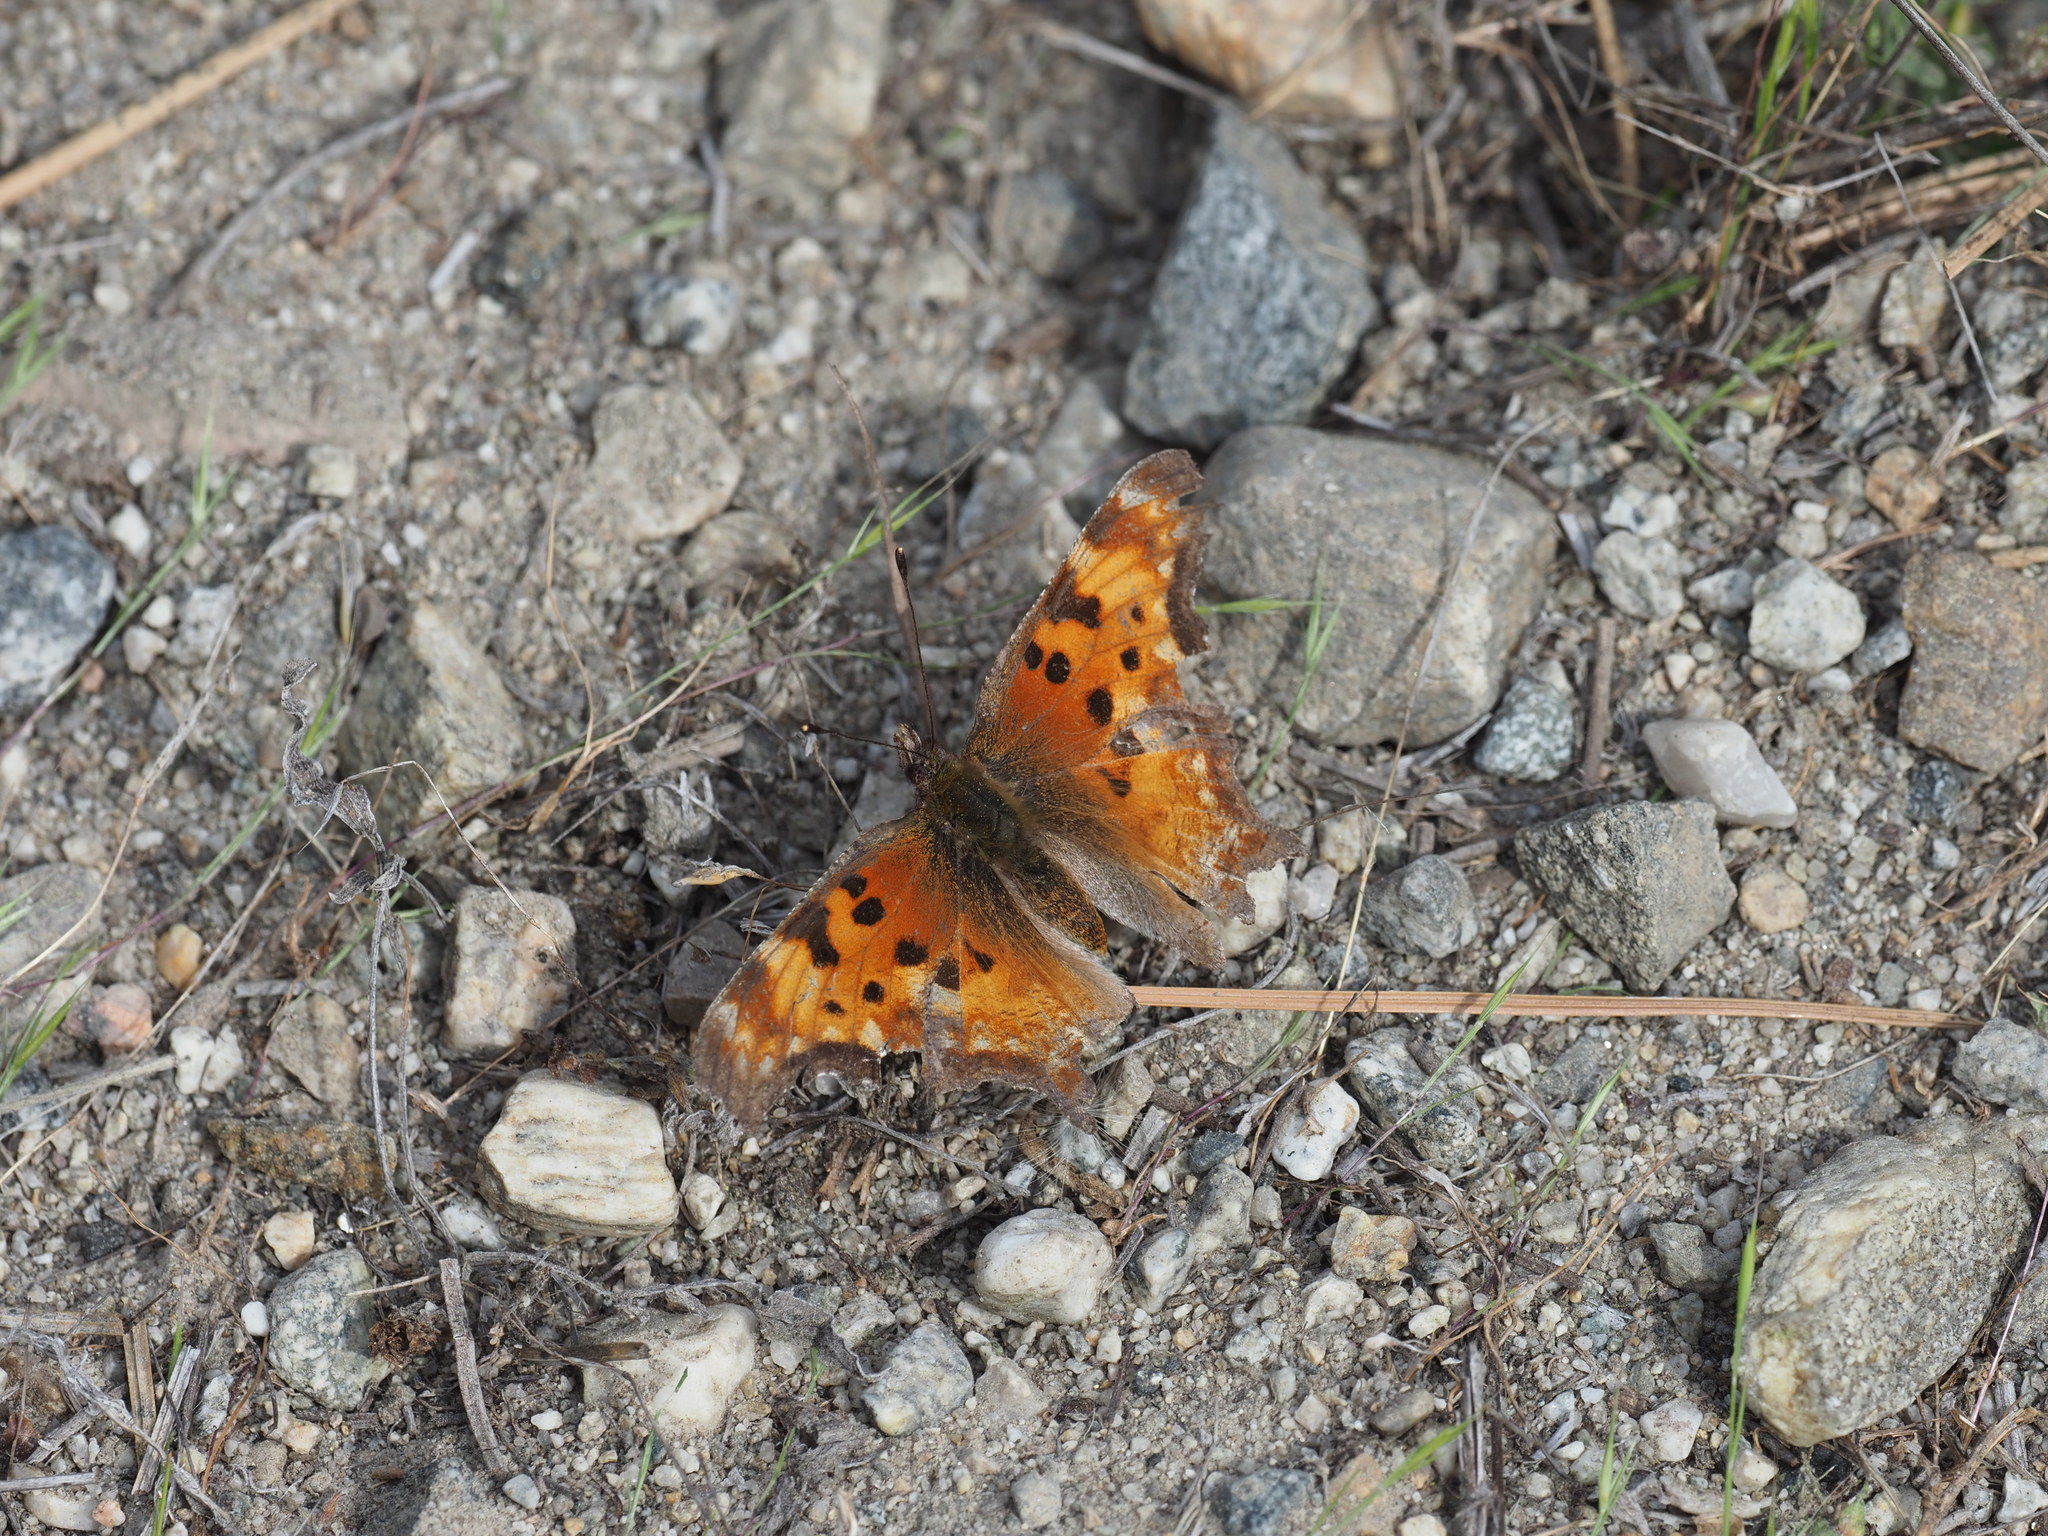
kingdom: Animalia
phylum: Arthropoda
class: Insecta
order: Lepidoptera
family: Nymphalidae
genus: Polygonia
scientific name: Polygonia gracilis
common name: Hoary comma
